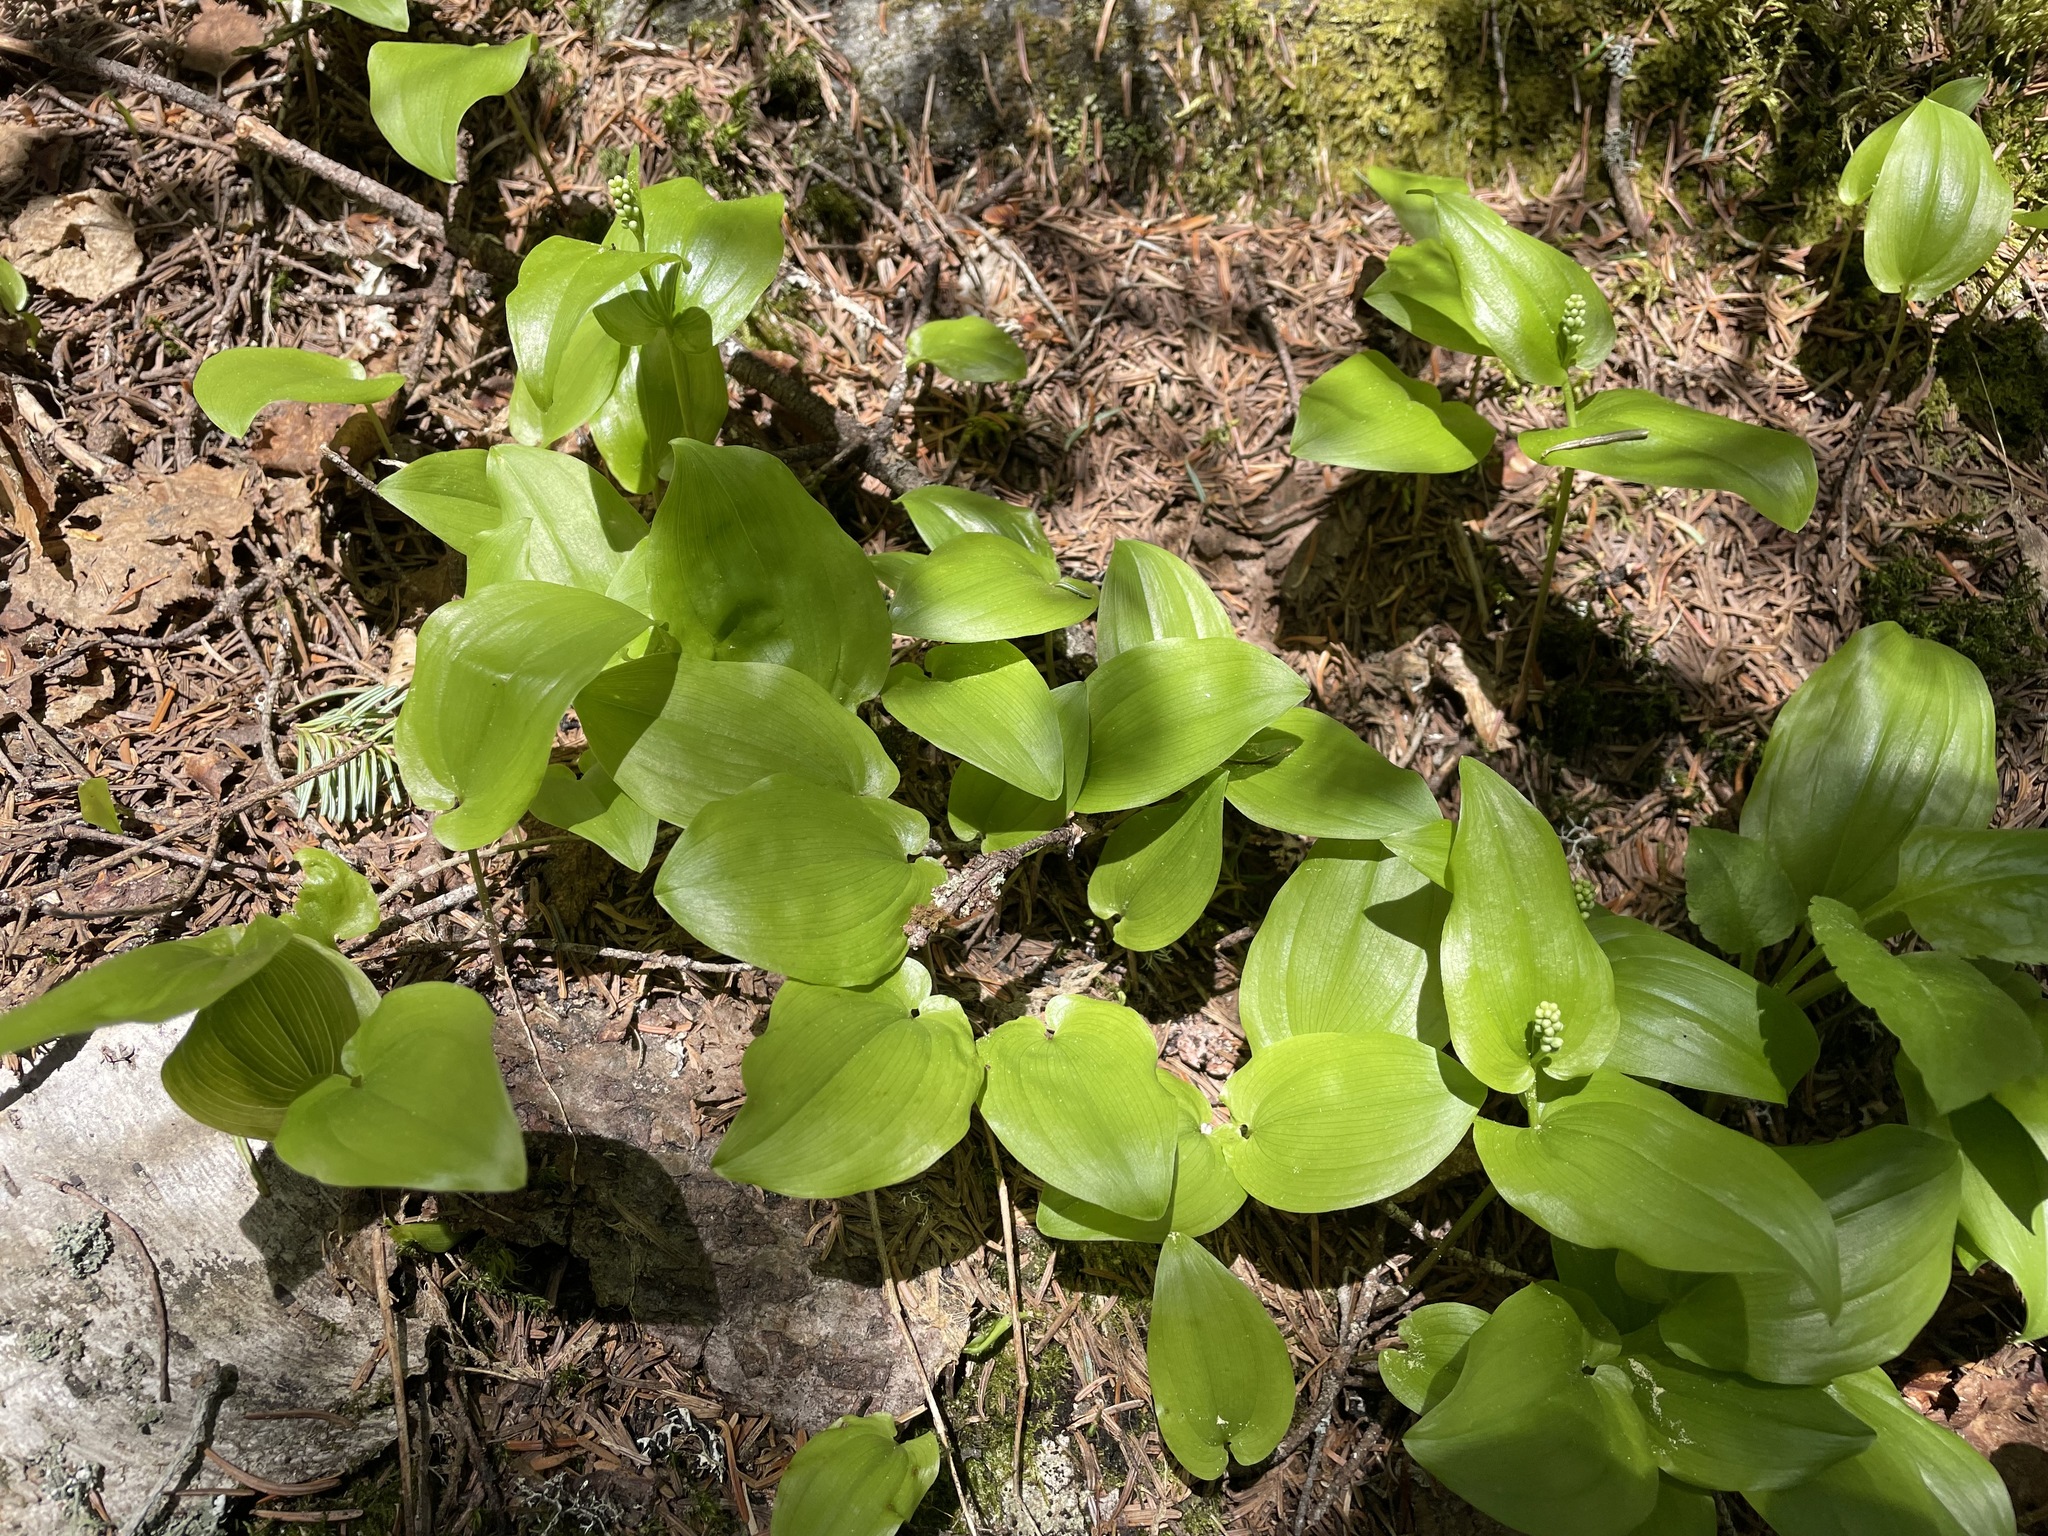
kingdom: Plantae
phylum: Tracheophyta
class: Liliopsida
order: Asparagales
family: Asparagaceae
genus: Maianthemum
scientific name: Maianthemum canadense
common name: False lily-of-the-valley
